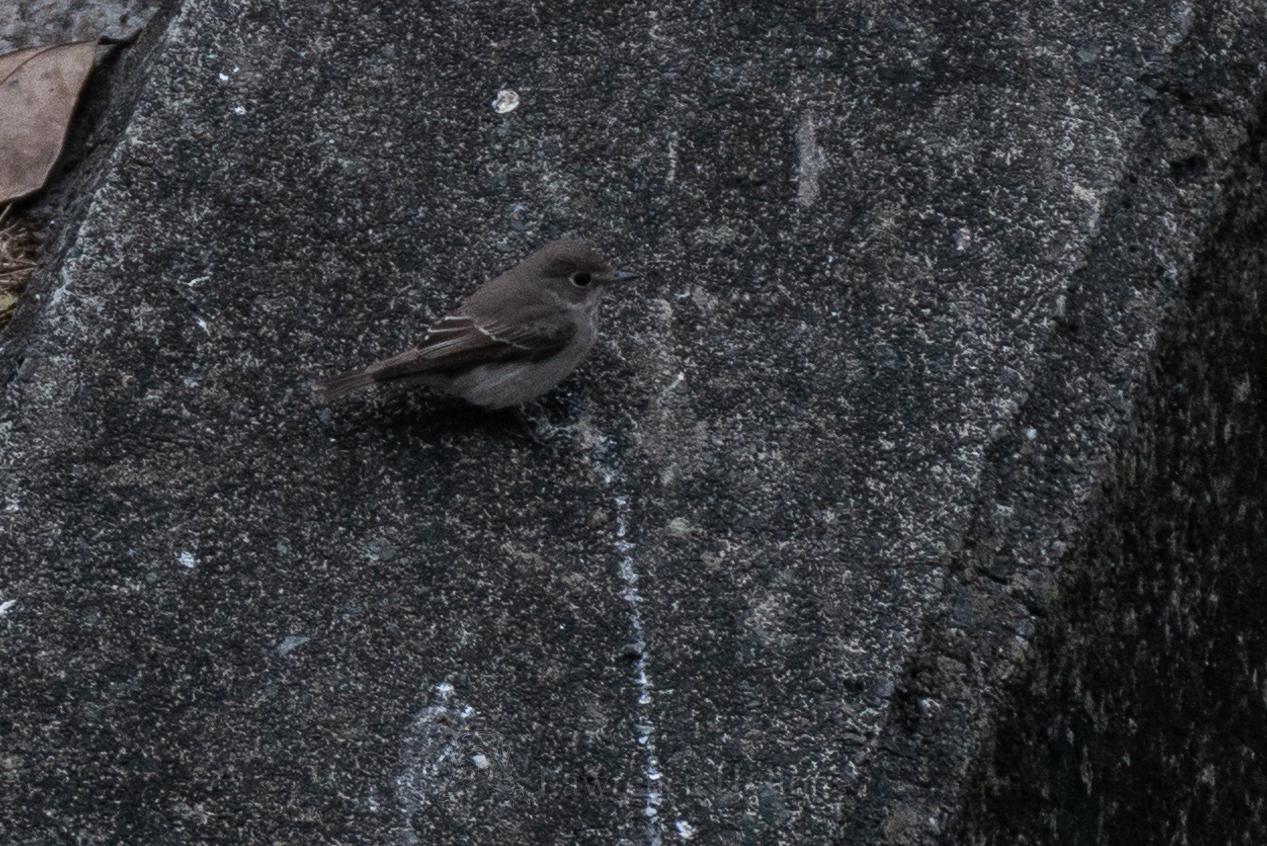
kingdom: Animalia
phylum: Chordata
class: Aves
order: Passeriformes
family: Muscicapidae
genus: Muscicapa
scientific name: Muscicapa latirostris
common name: Asian brown flycatcher
